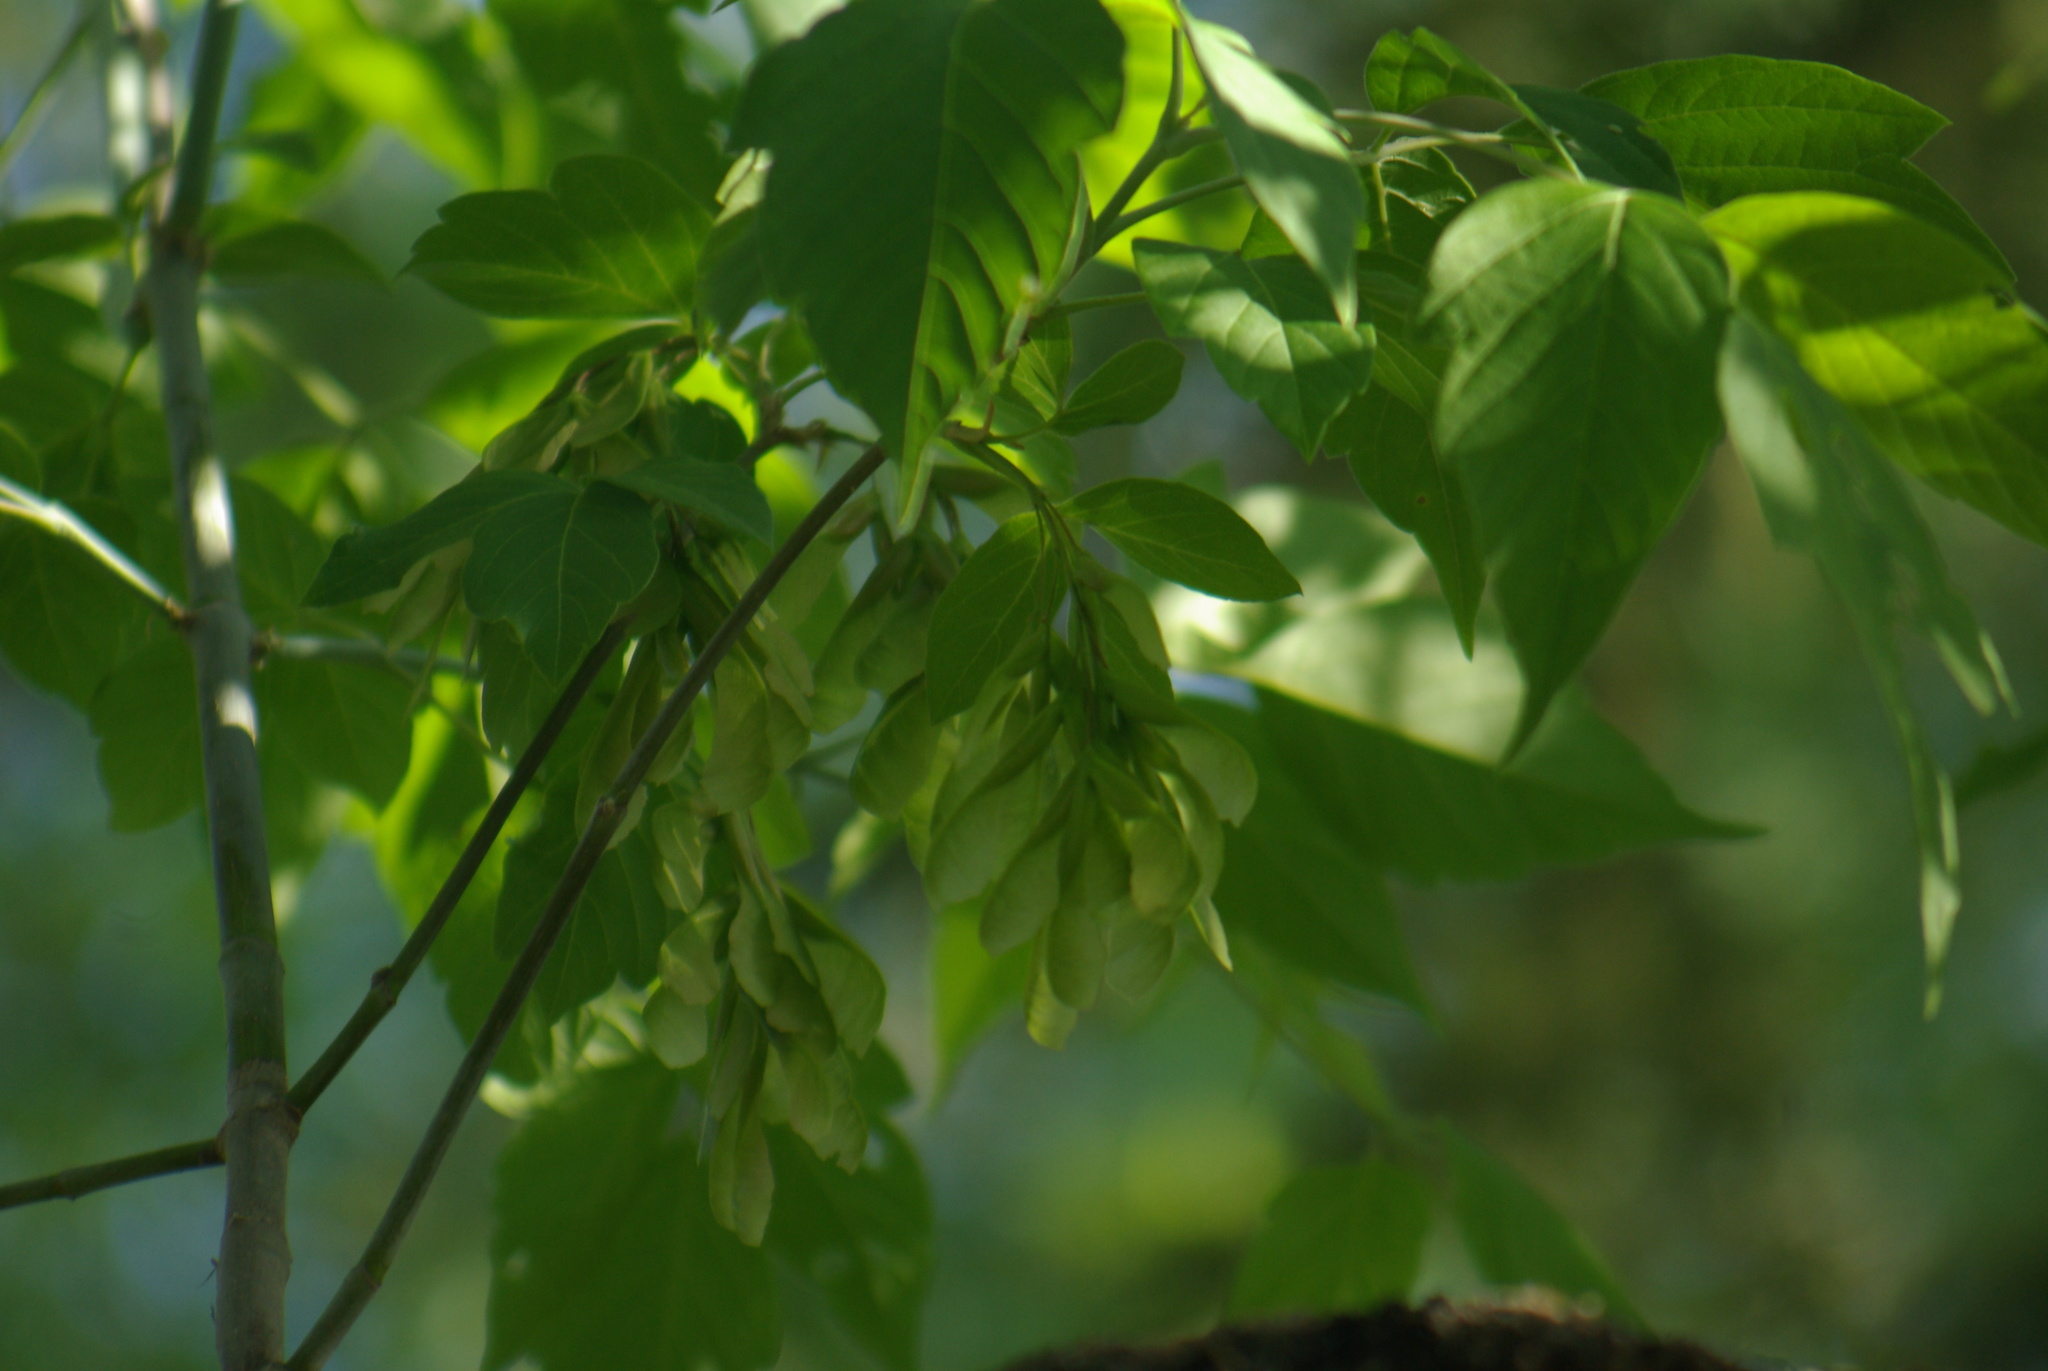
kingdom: Plantae
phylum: Tracheophyta
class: Magnoliopsida
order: Sapindales
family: Sapindaceae
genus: Acer
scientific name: Acer negundo
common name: Ashleaf maple
